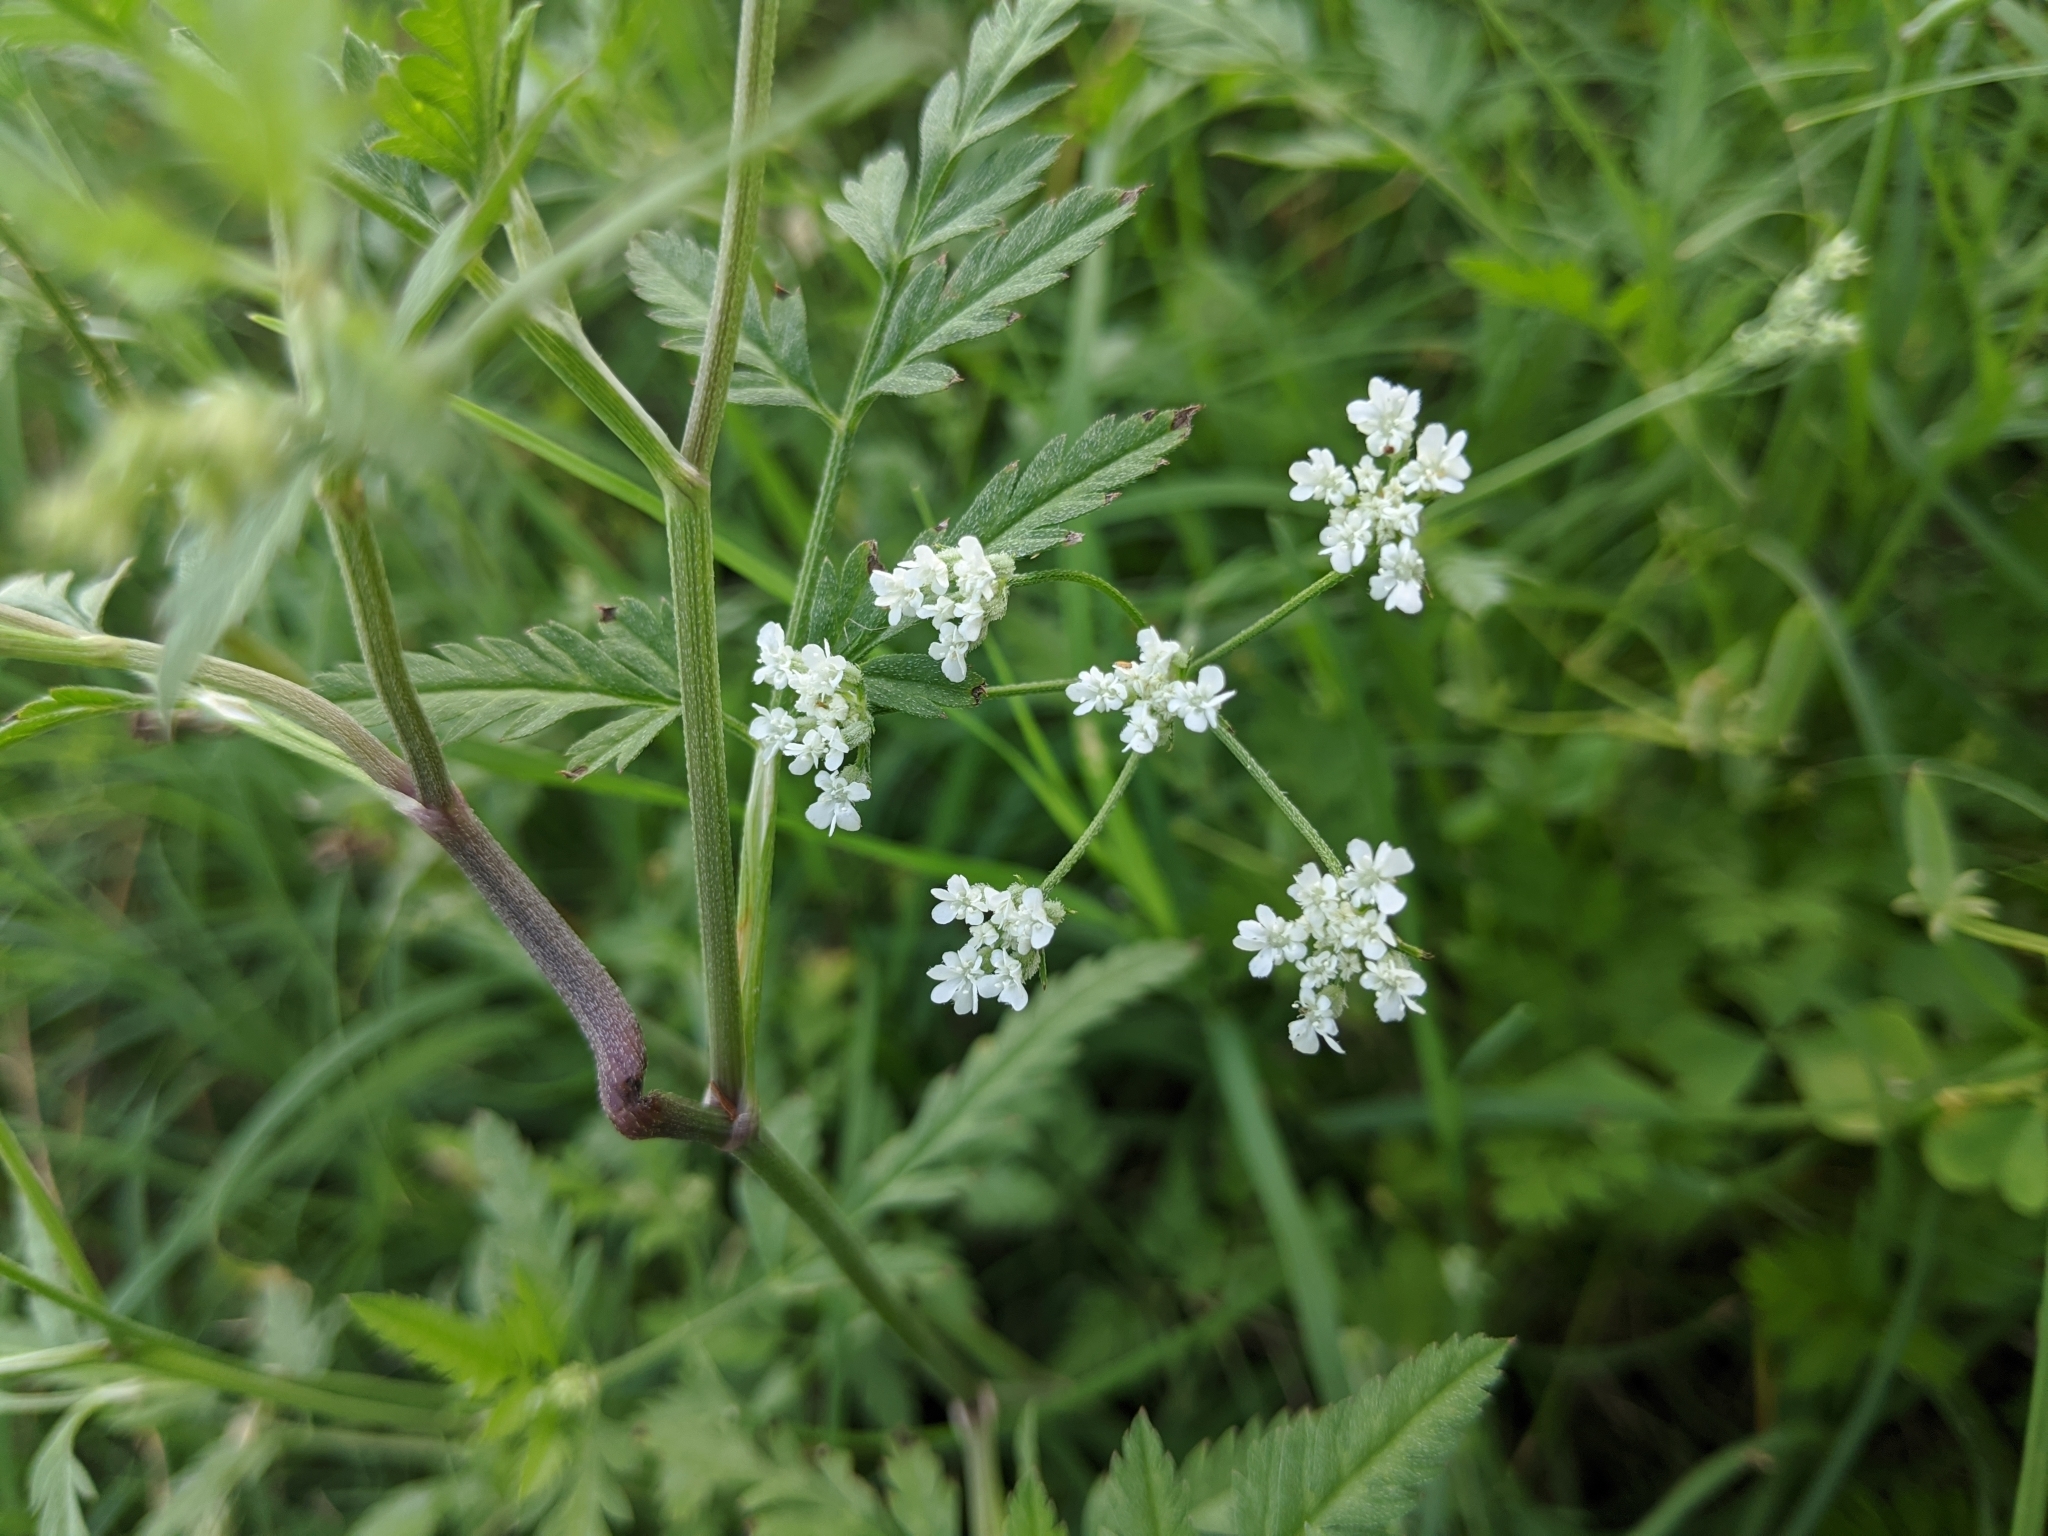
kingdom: Plantae
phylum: Tracheophyta
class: Magnoliopsida
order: Apiales
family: Apiaceae
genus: Torilis
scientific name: Torilis arvensis
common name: Spreading hedge-parsley
